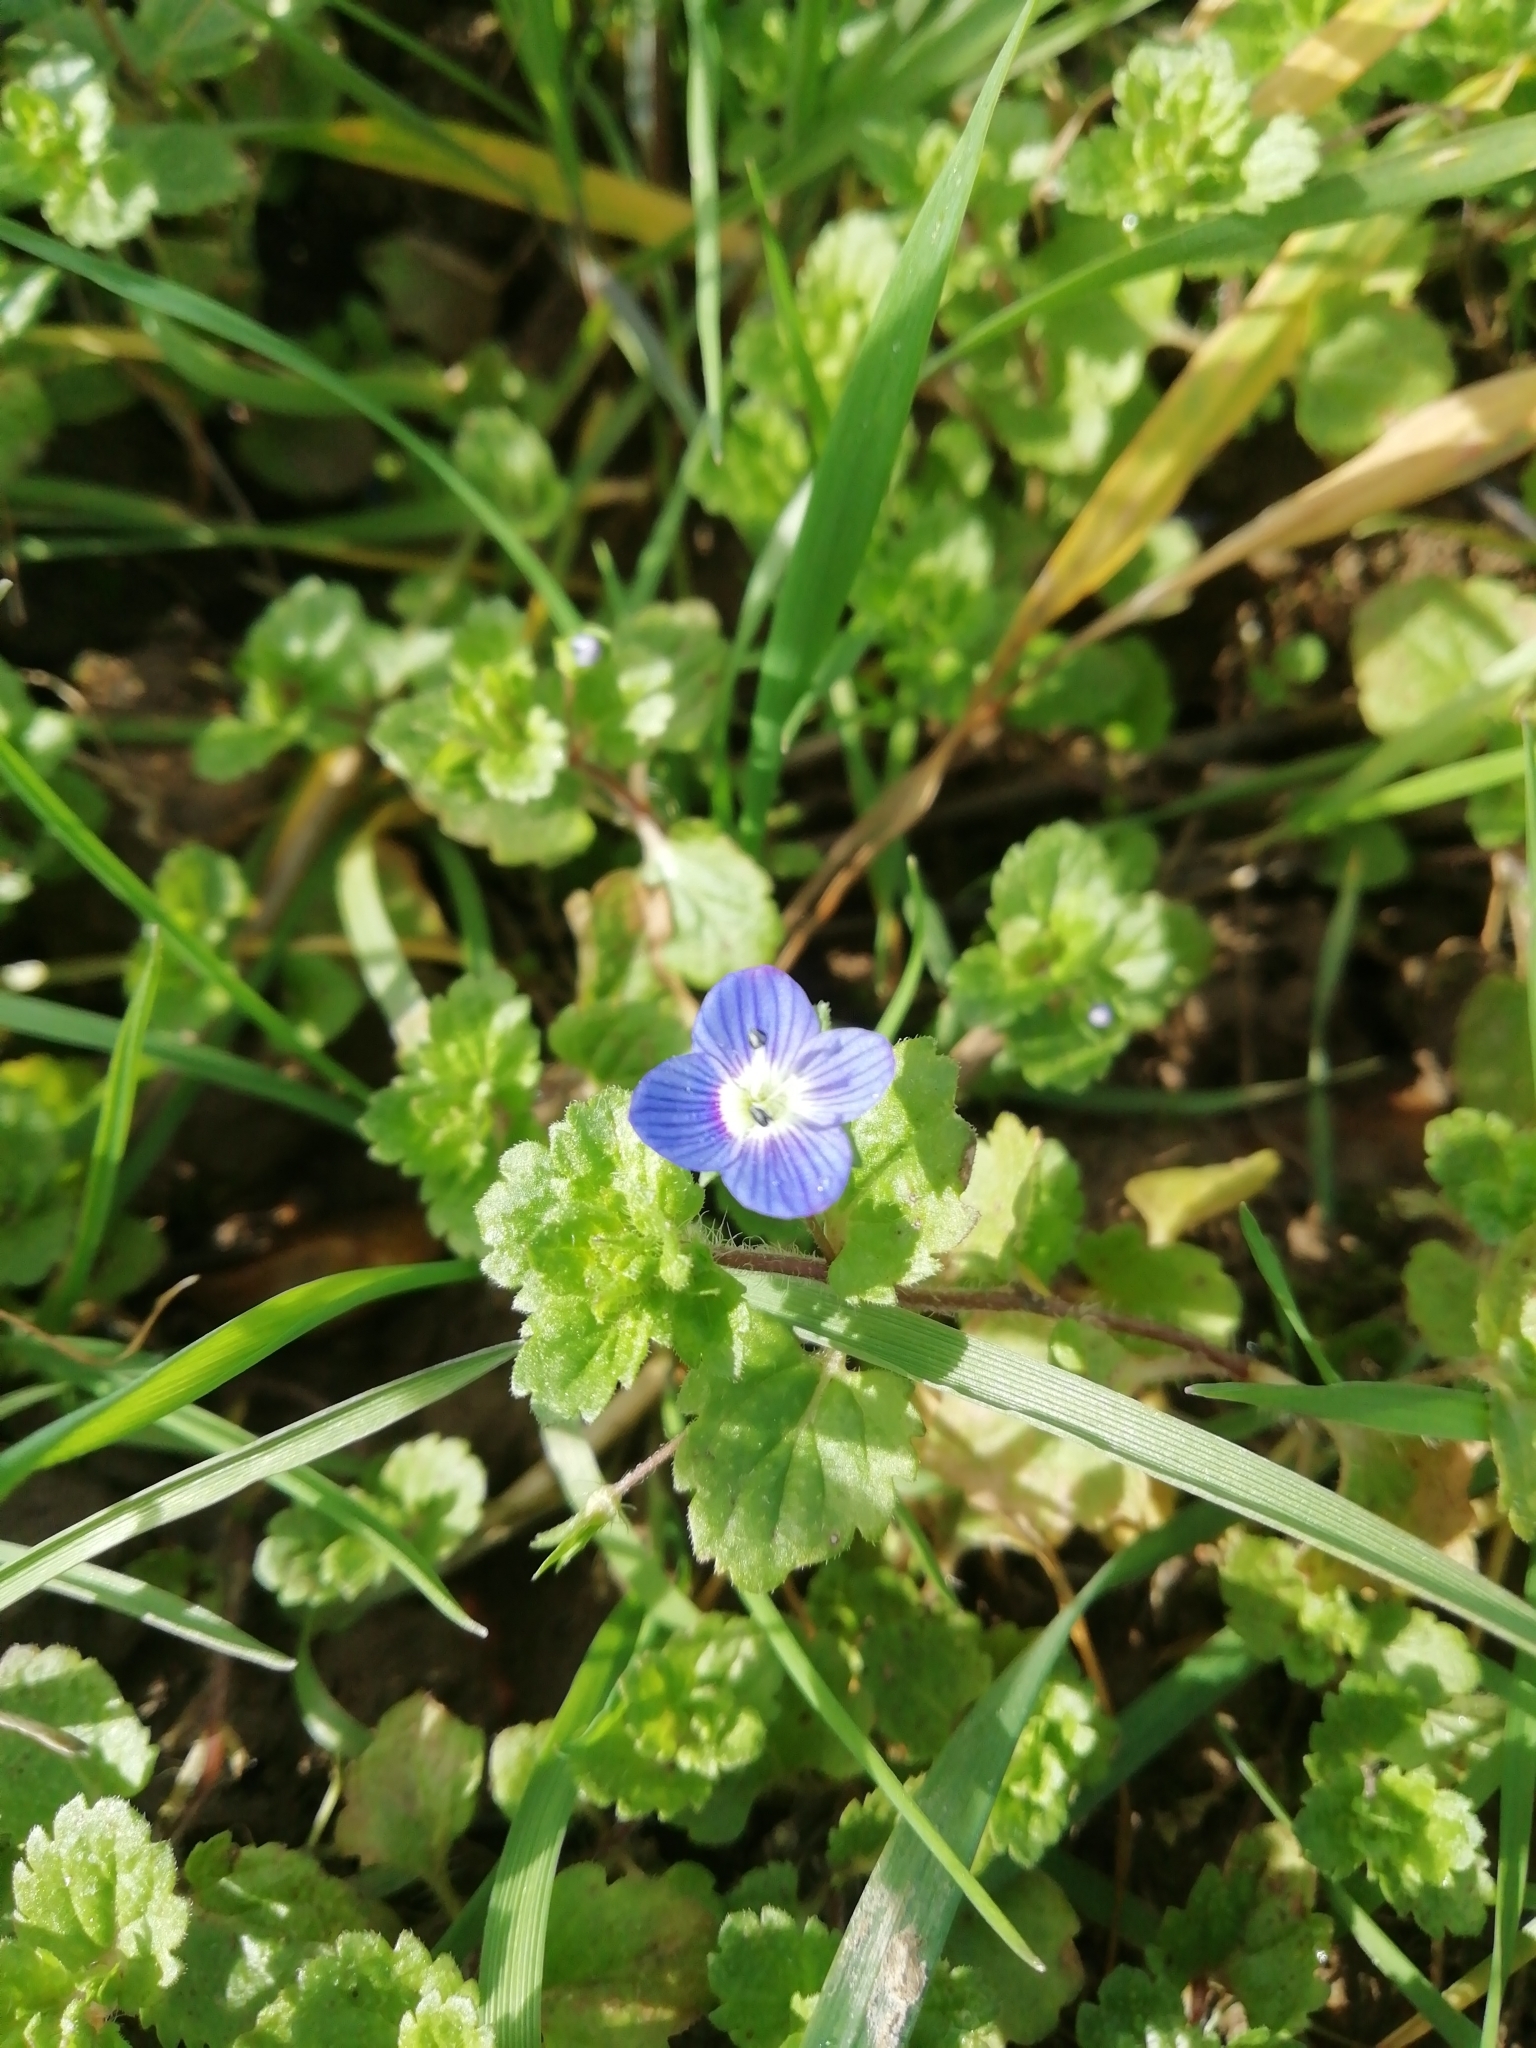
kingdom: Plantae
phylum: Tracheophyta
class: Magnoliopsida
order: Lamiales
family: Plantaginaceae
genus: Veronica
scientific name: Veronica persica
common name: Common field-speedwell
